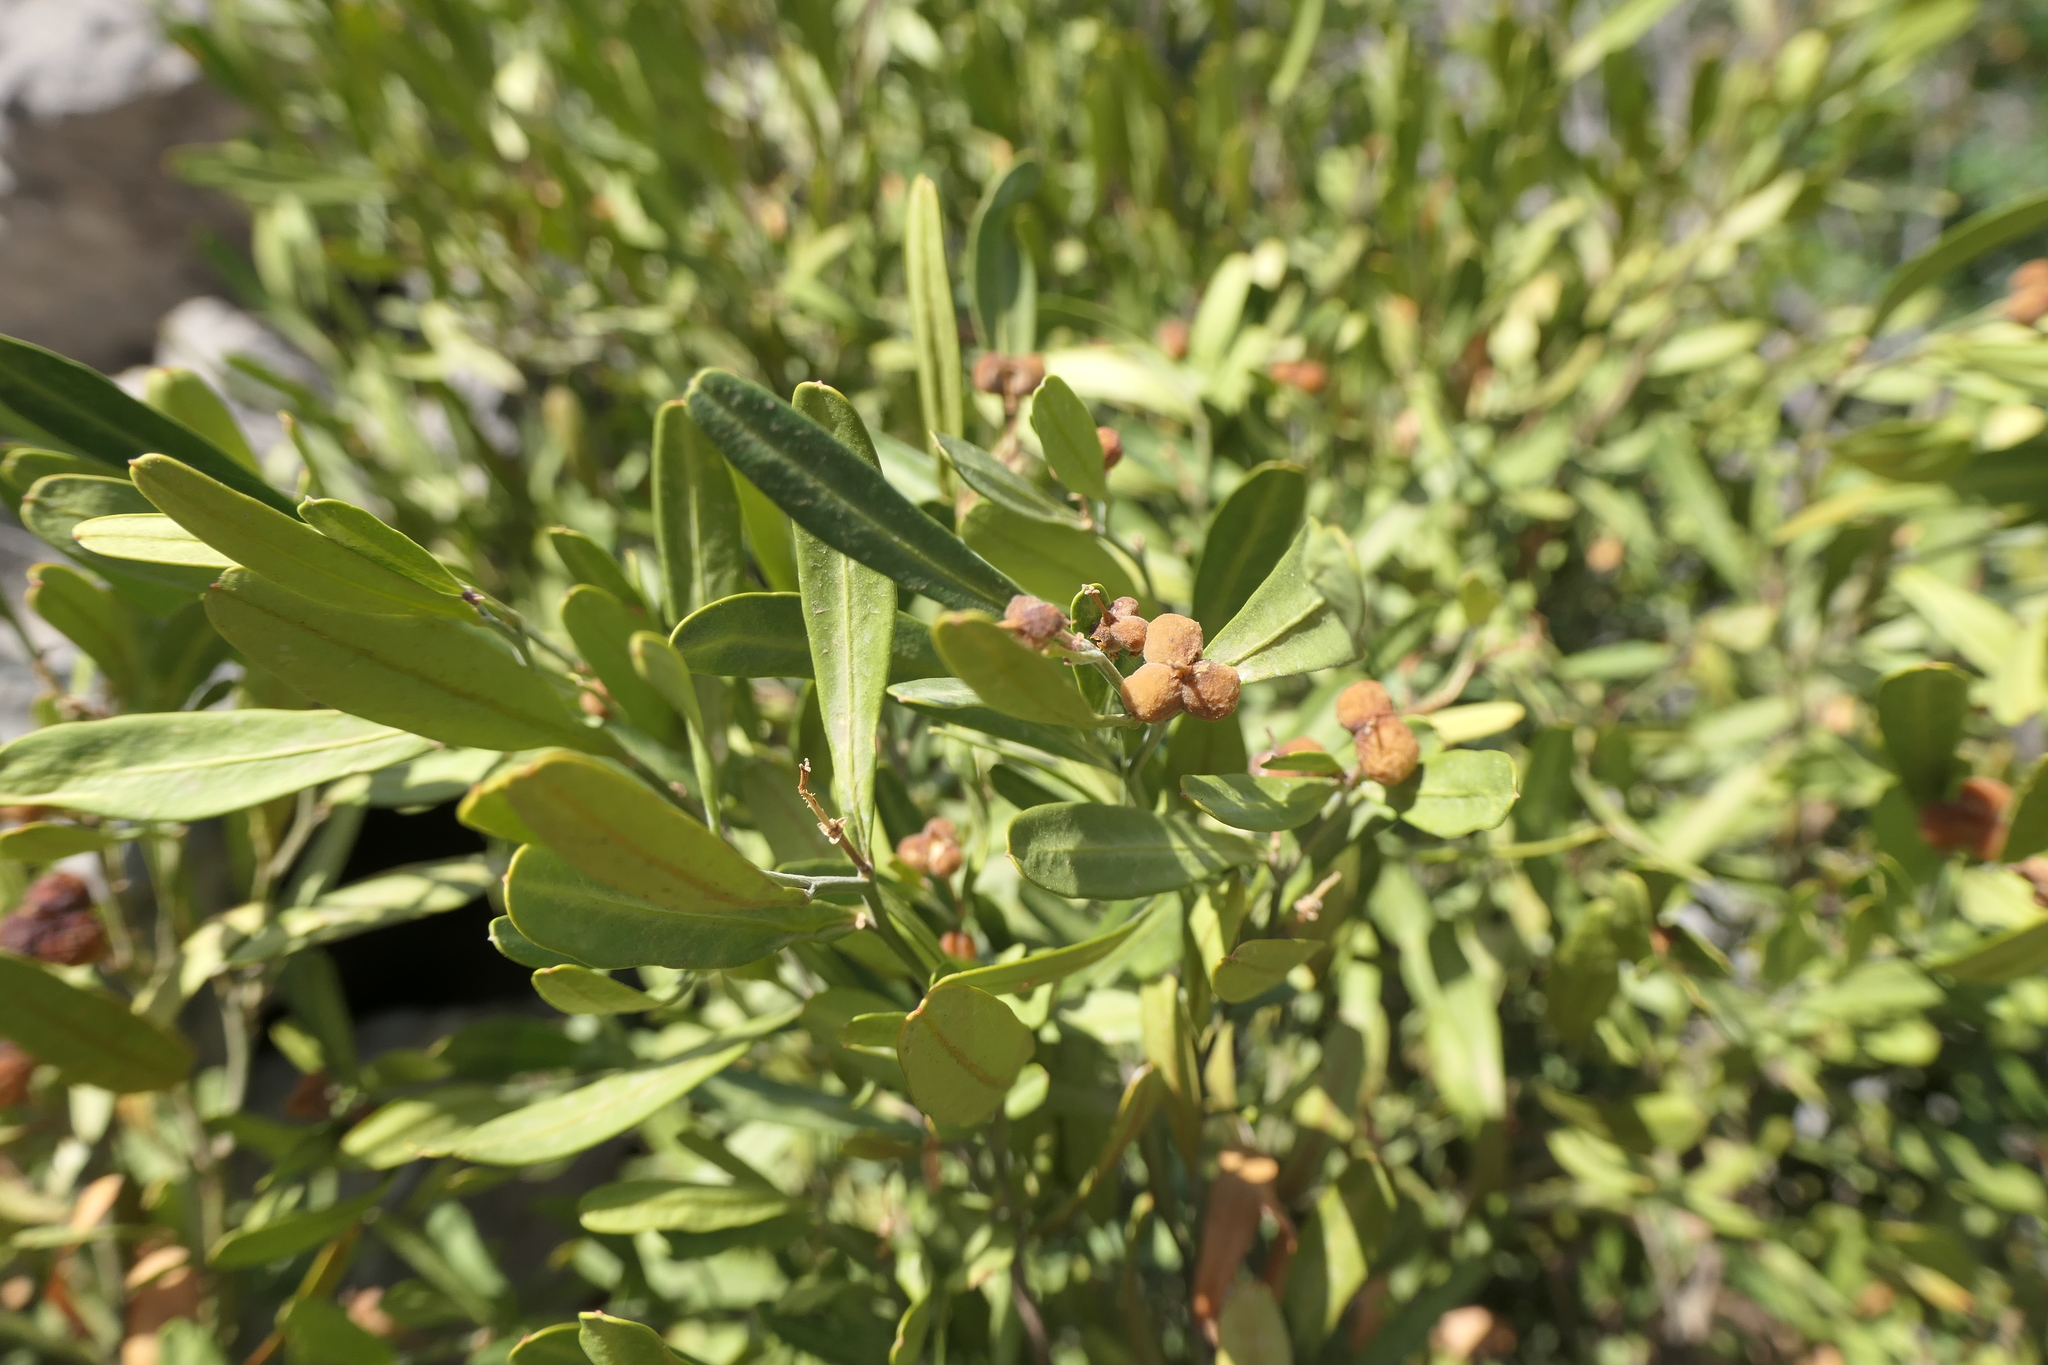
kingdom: Plantae
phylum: Tracheophyta
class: Magnoliopsida
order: Sapindales
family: Rutaceae
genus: Cneorum
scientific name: Cneorum tricoccon
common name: Spurge olive
